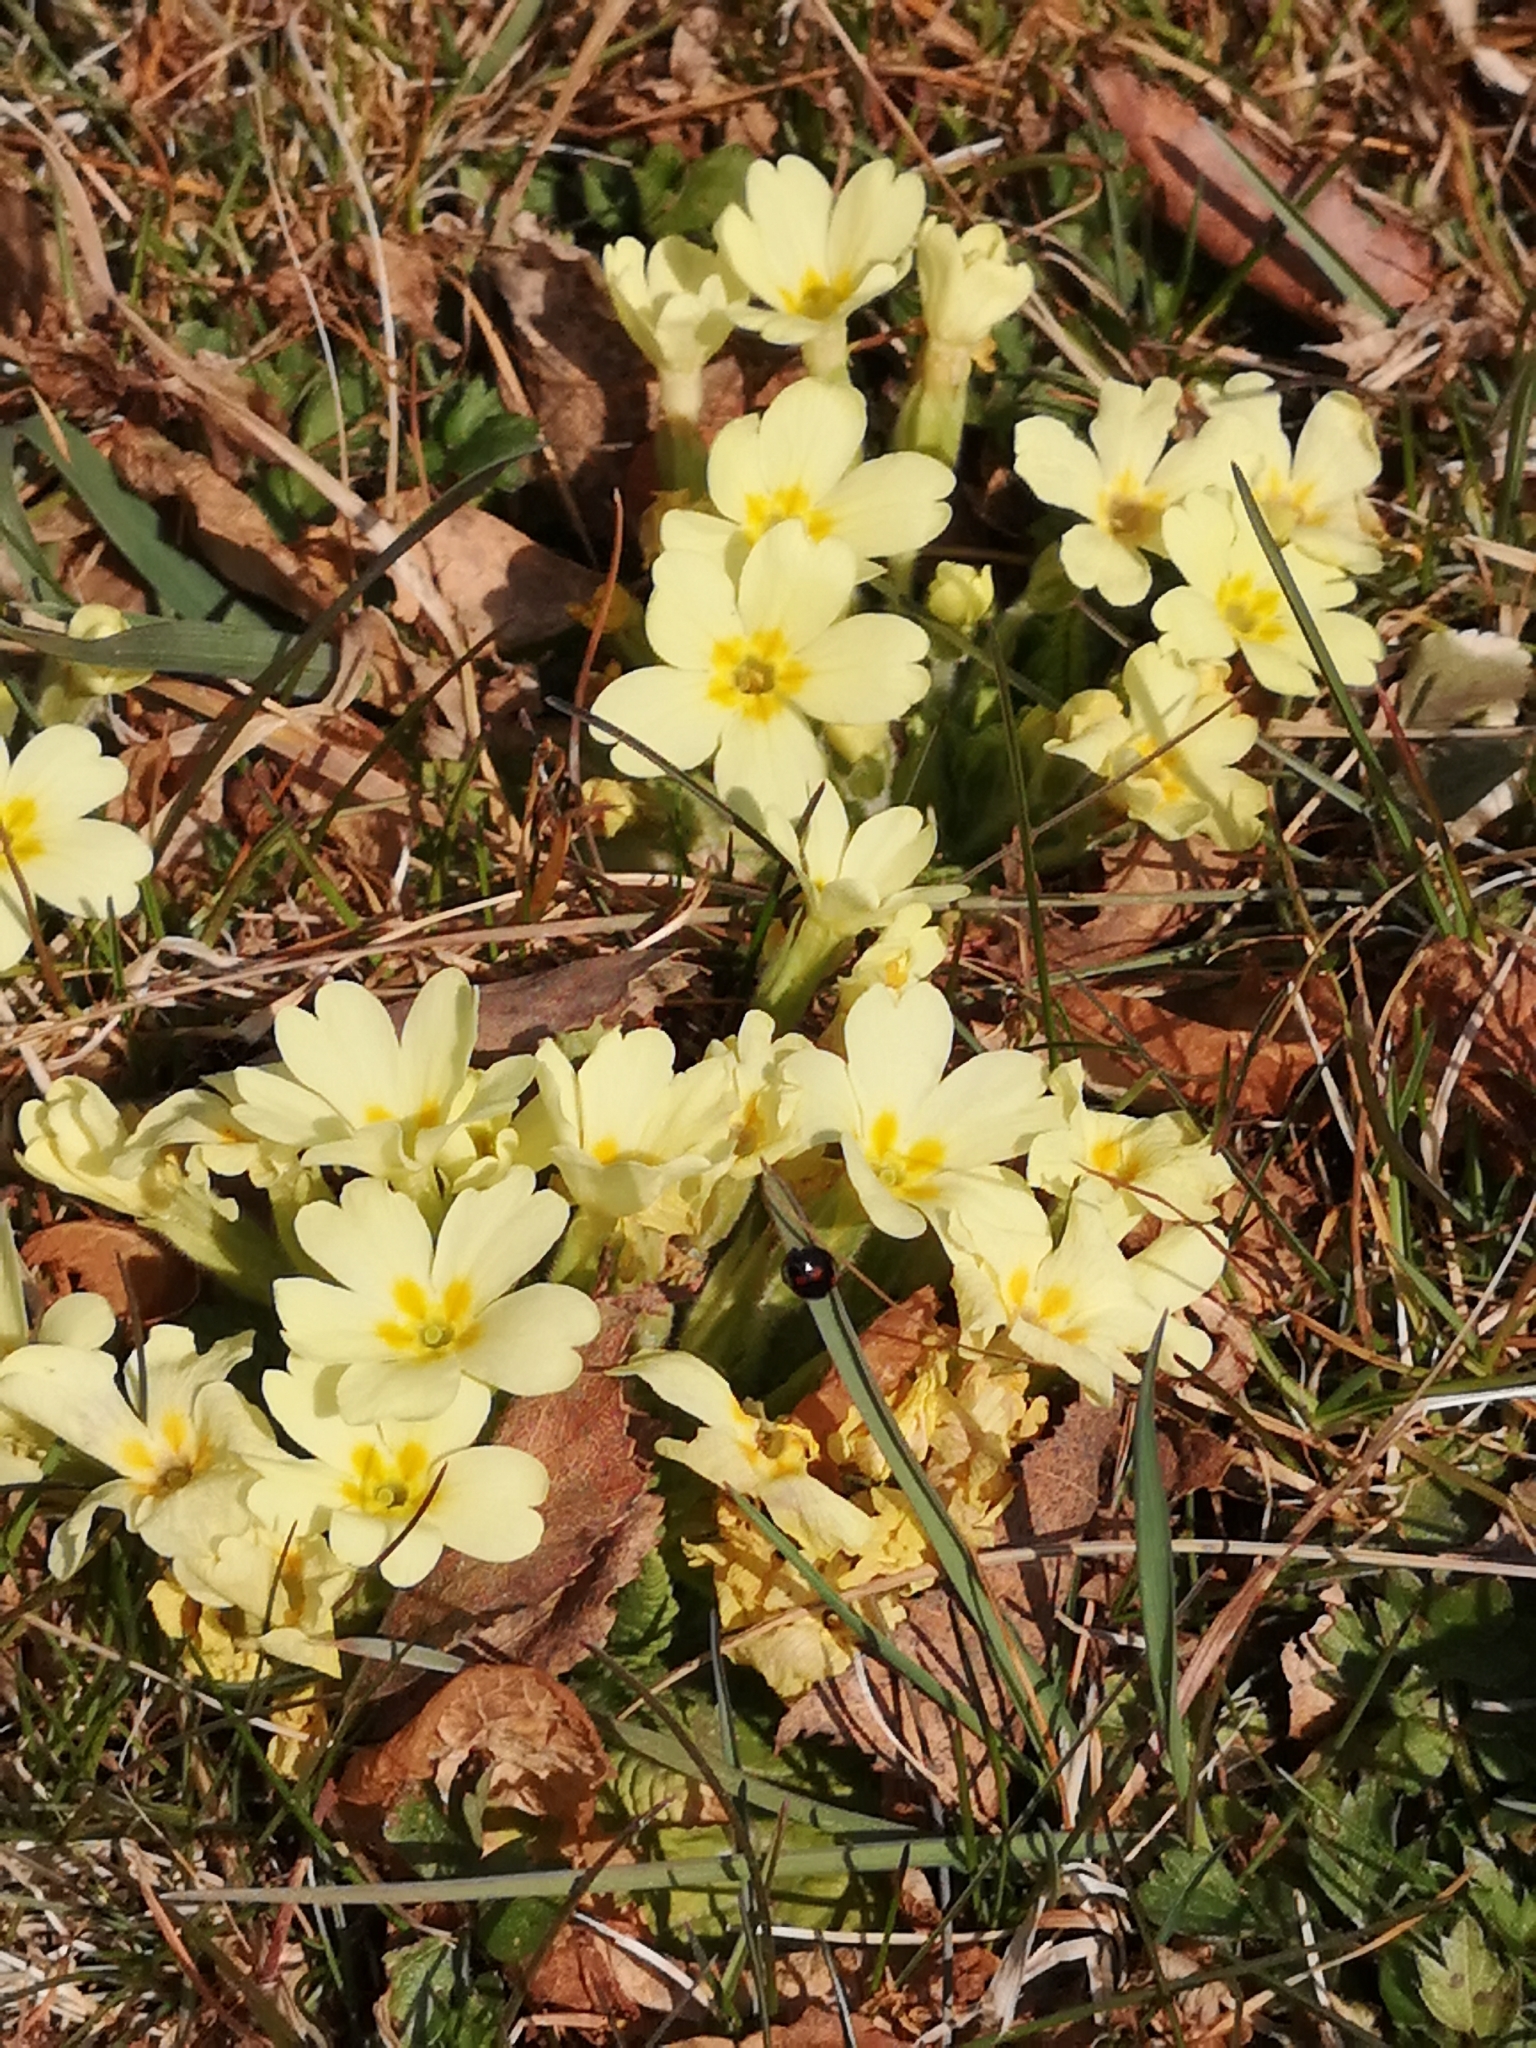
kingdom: Plantae
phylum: Tracheophyta
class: Magnoliopsida
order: Ericales
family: Primulaceae
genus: Primula
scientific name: Primula vulgaris
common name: Primrose
